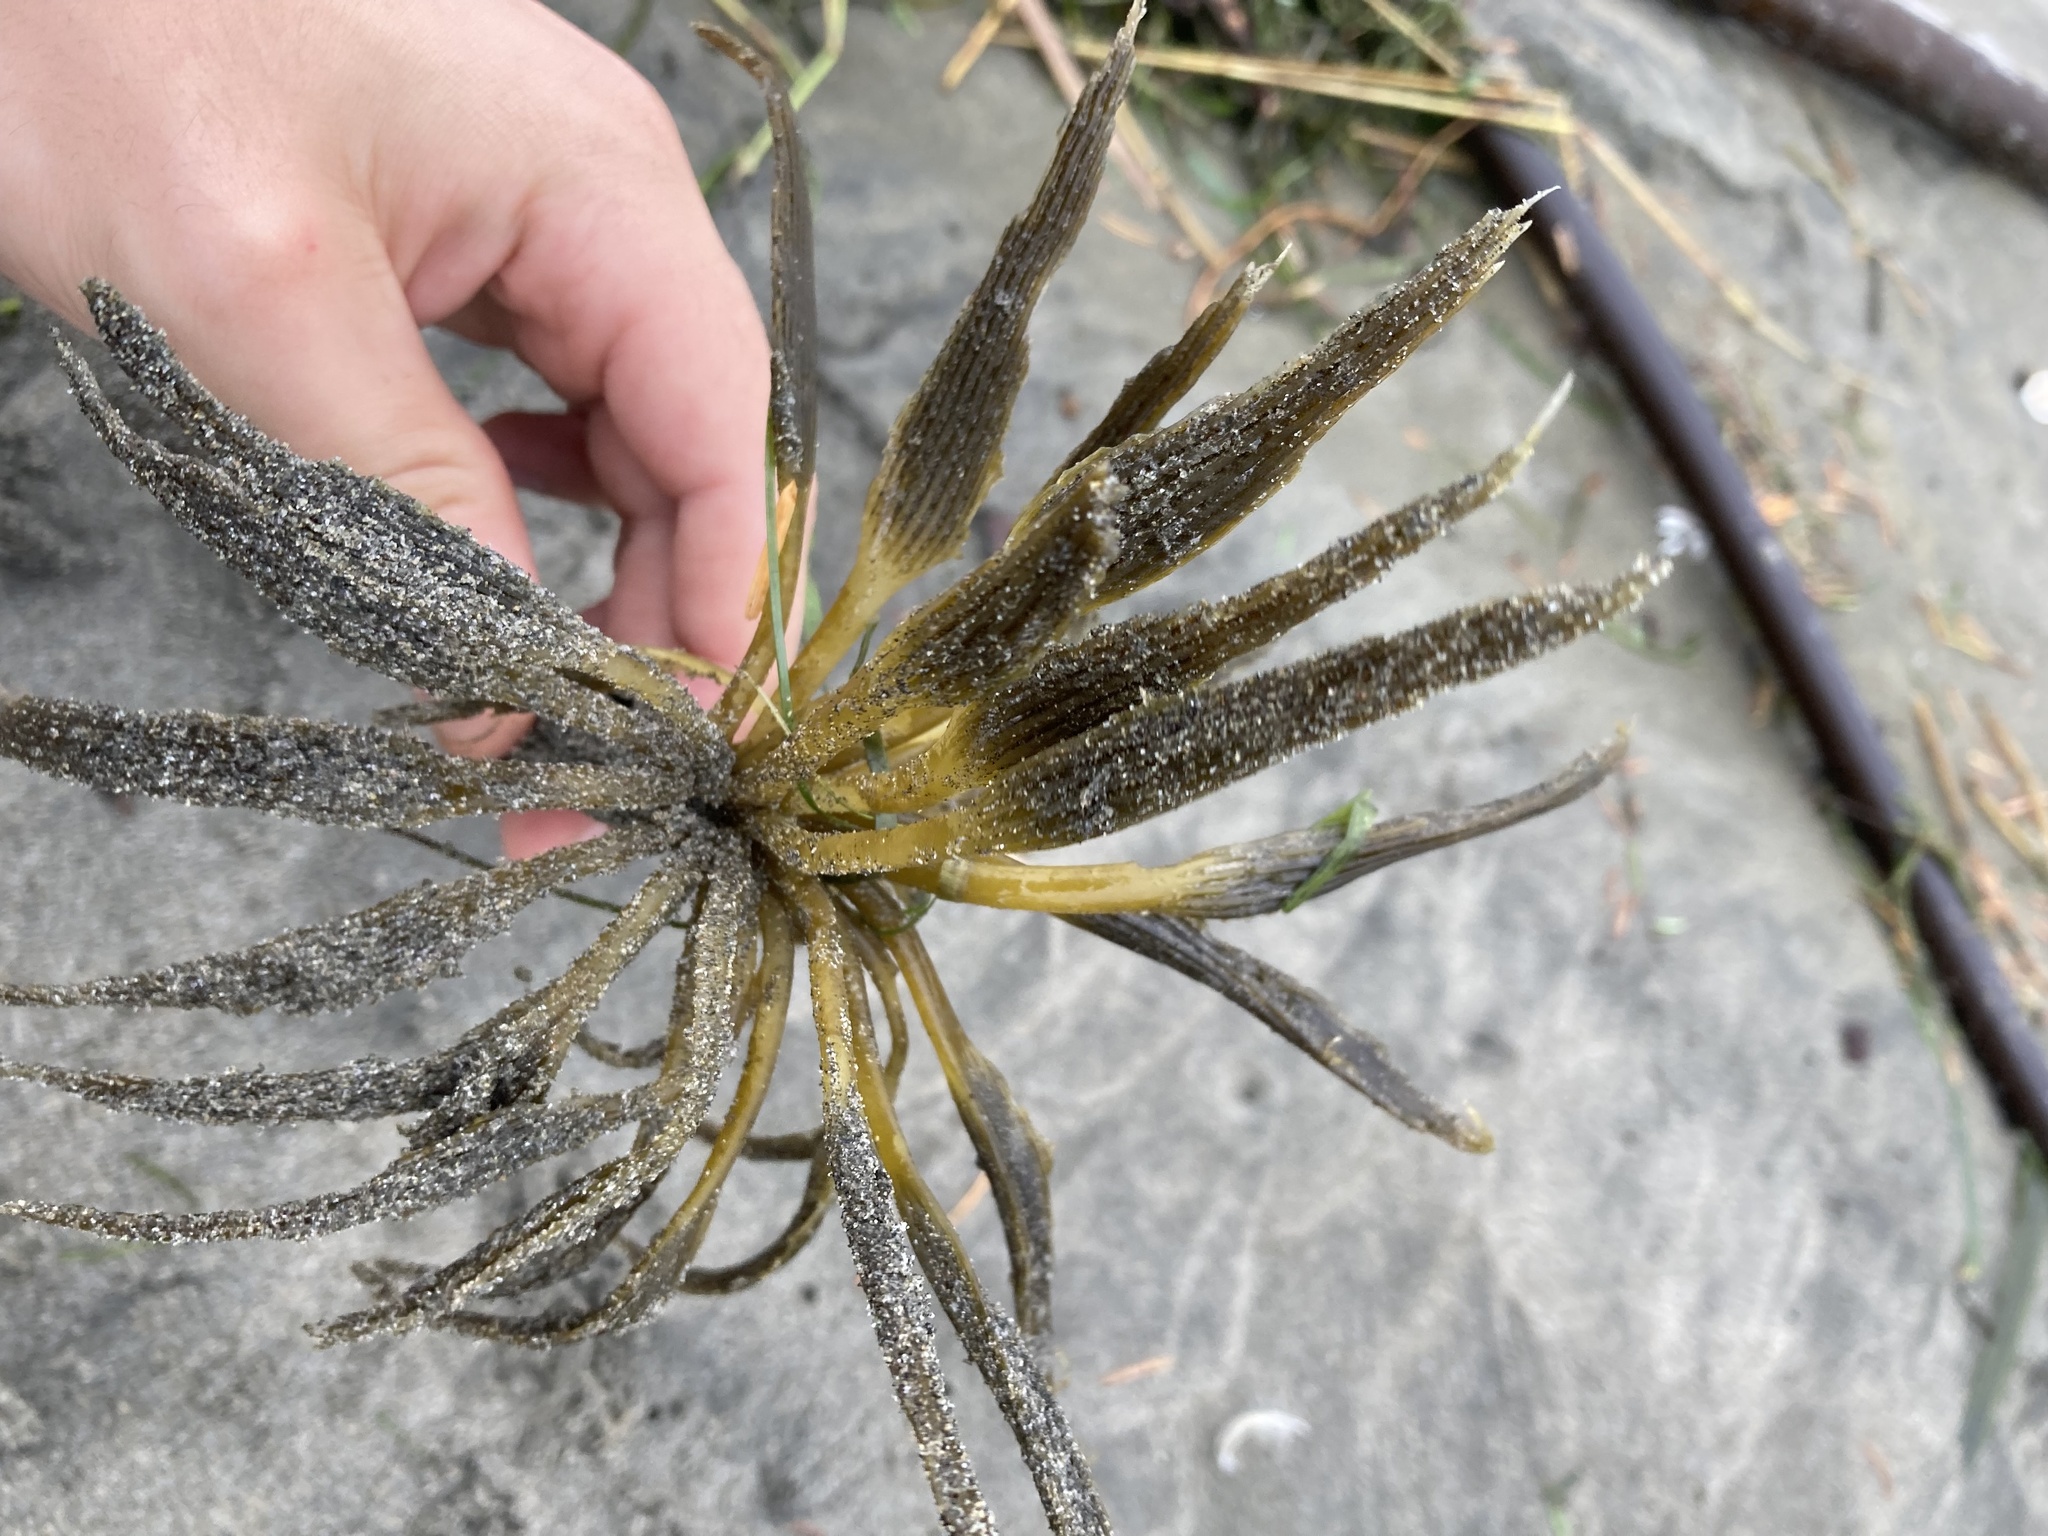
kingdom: Chromista
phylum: Ochrophyta
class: Phaeophyceae
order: Laminariales
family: Laminariaceae
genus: Postelsia
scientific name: Postelsia palmiformis
